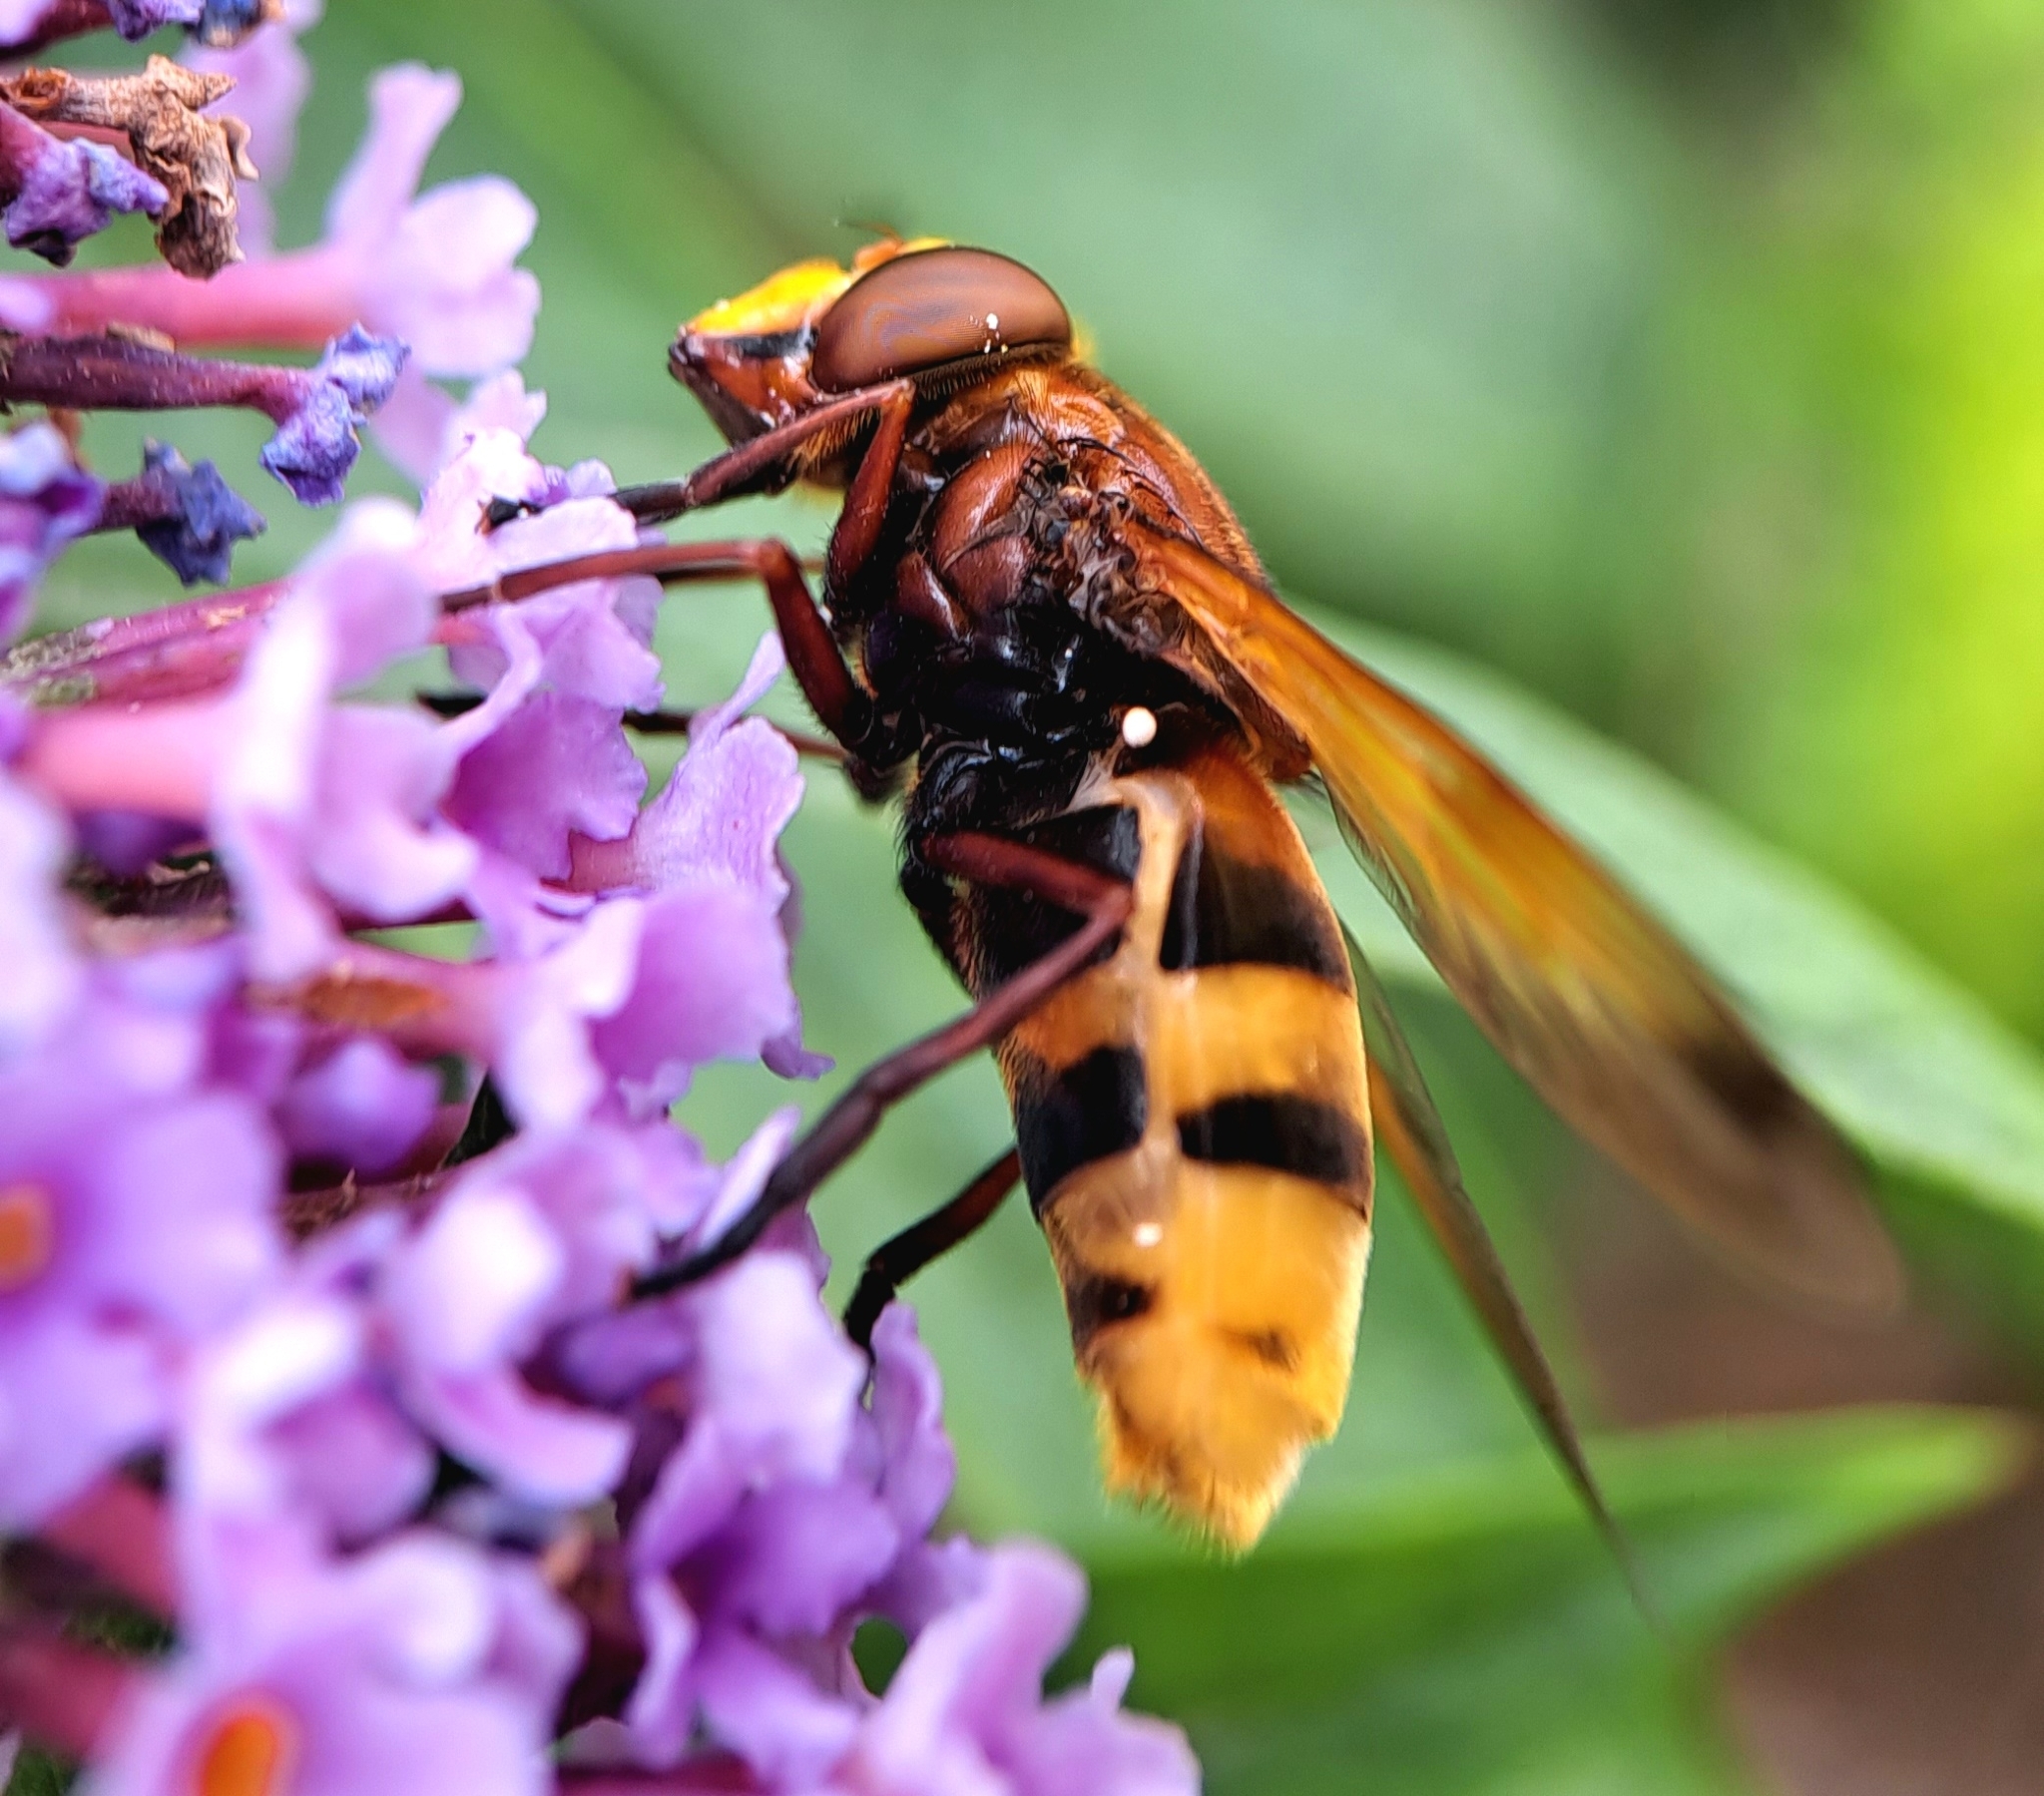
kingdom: Animalia
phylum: Arthropoda
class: Insecta
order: Diptera
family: Syrphidae
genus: Volucella
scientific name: Volucella zonaria
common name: Hornet hoverfly
